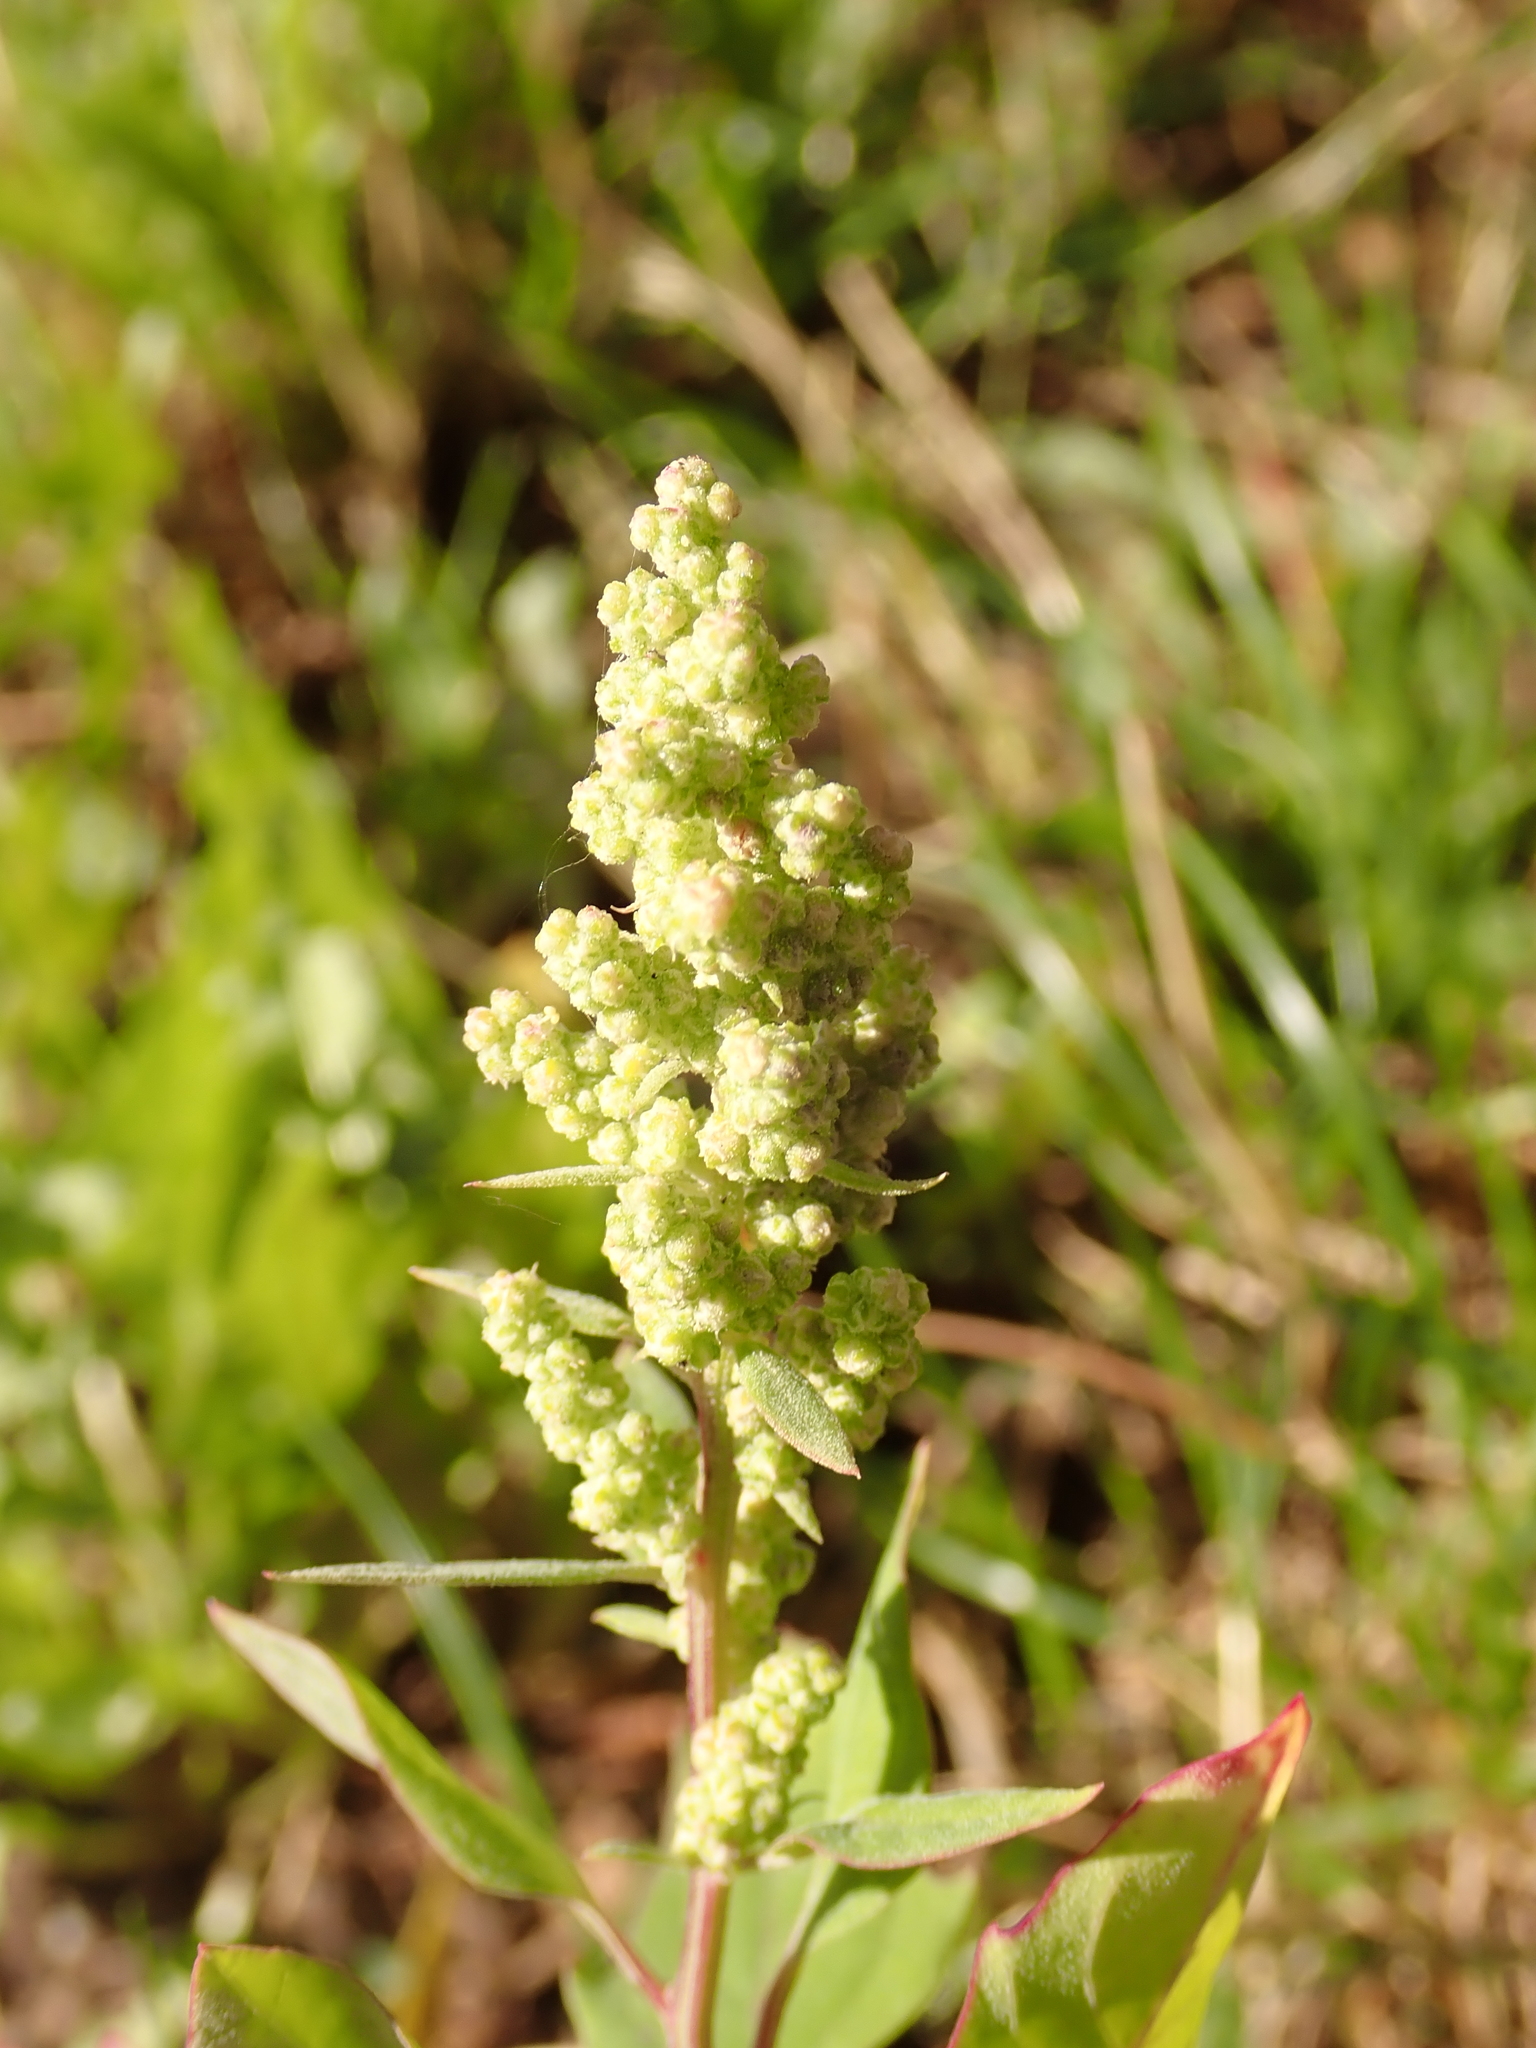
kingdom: Plantae
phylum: Tracheophyta
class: Magnoliopsida
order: Caryophyllales
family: Amaranthaceae
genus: Chenopodium
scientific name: Chenopodium album
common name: Fat-hen
